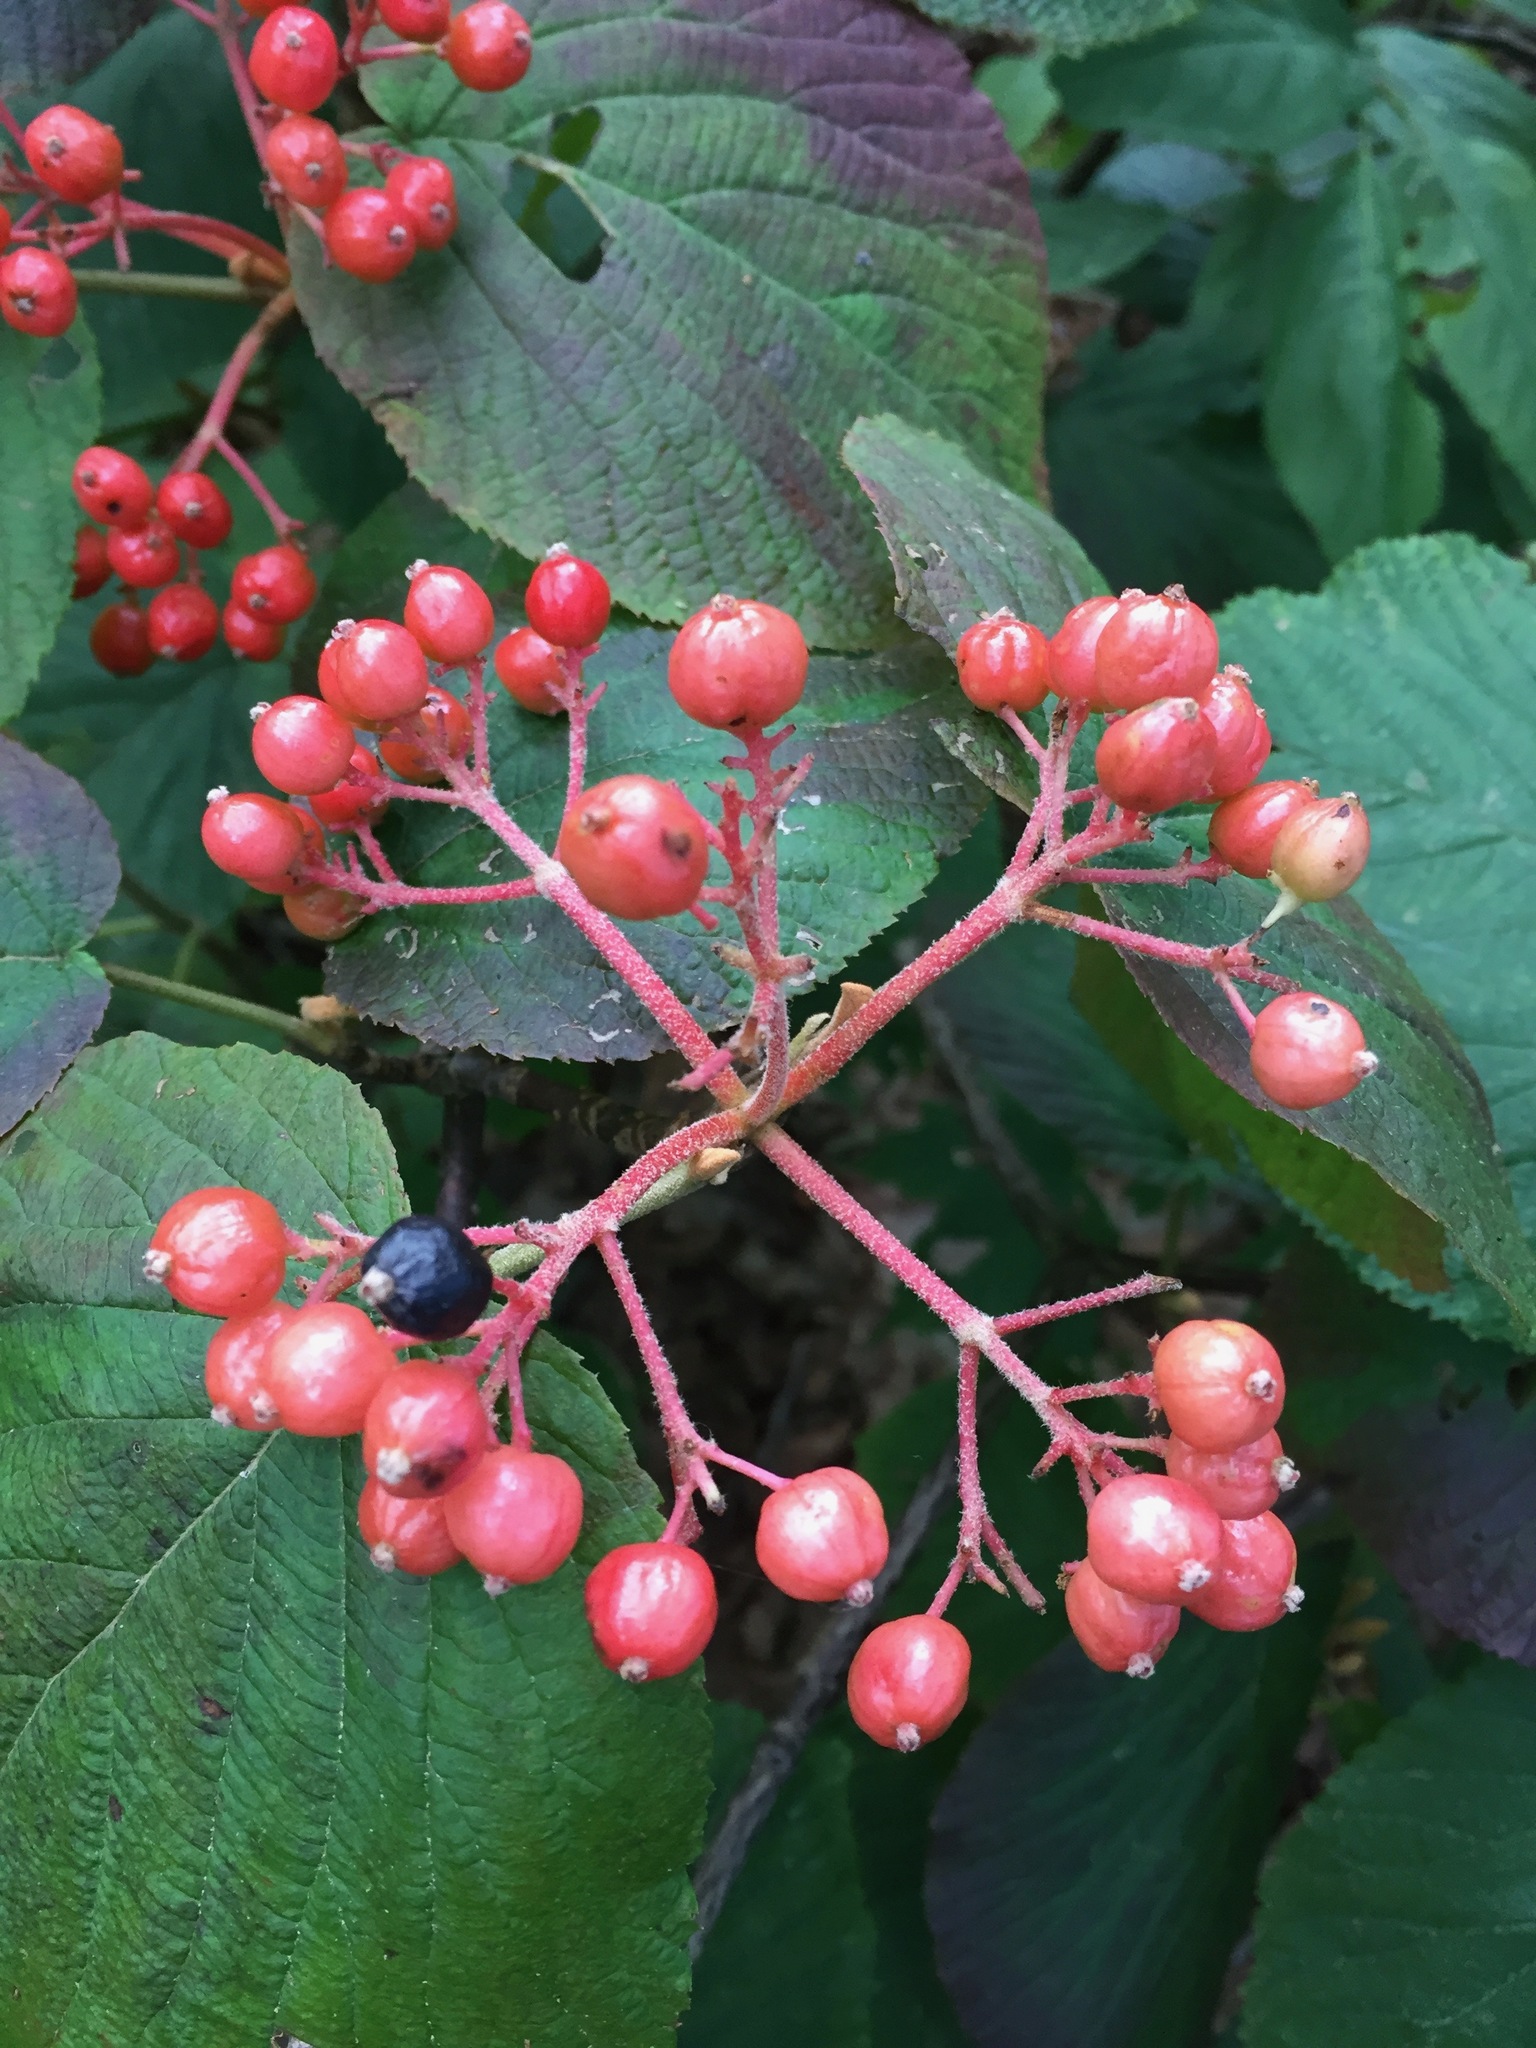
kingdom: Plantae
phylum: Tracheophyta
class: Magnoliopsida
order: Dipsacales
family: Viburnaceae
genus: Viburnum
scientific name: Viburnum lantanoides
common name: Hobblebush
